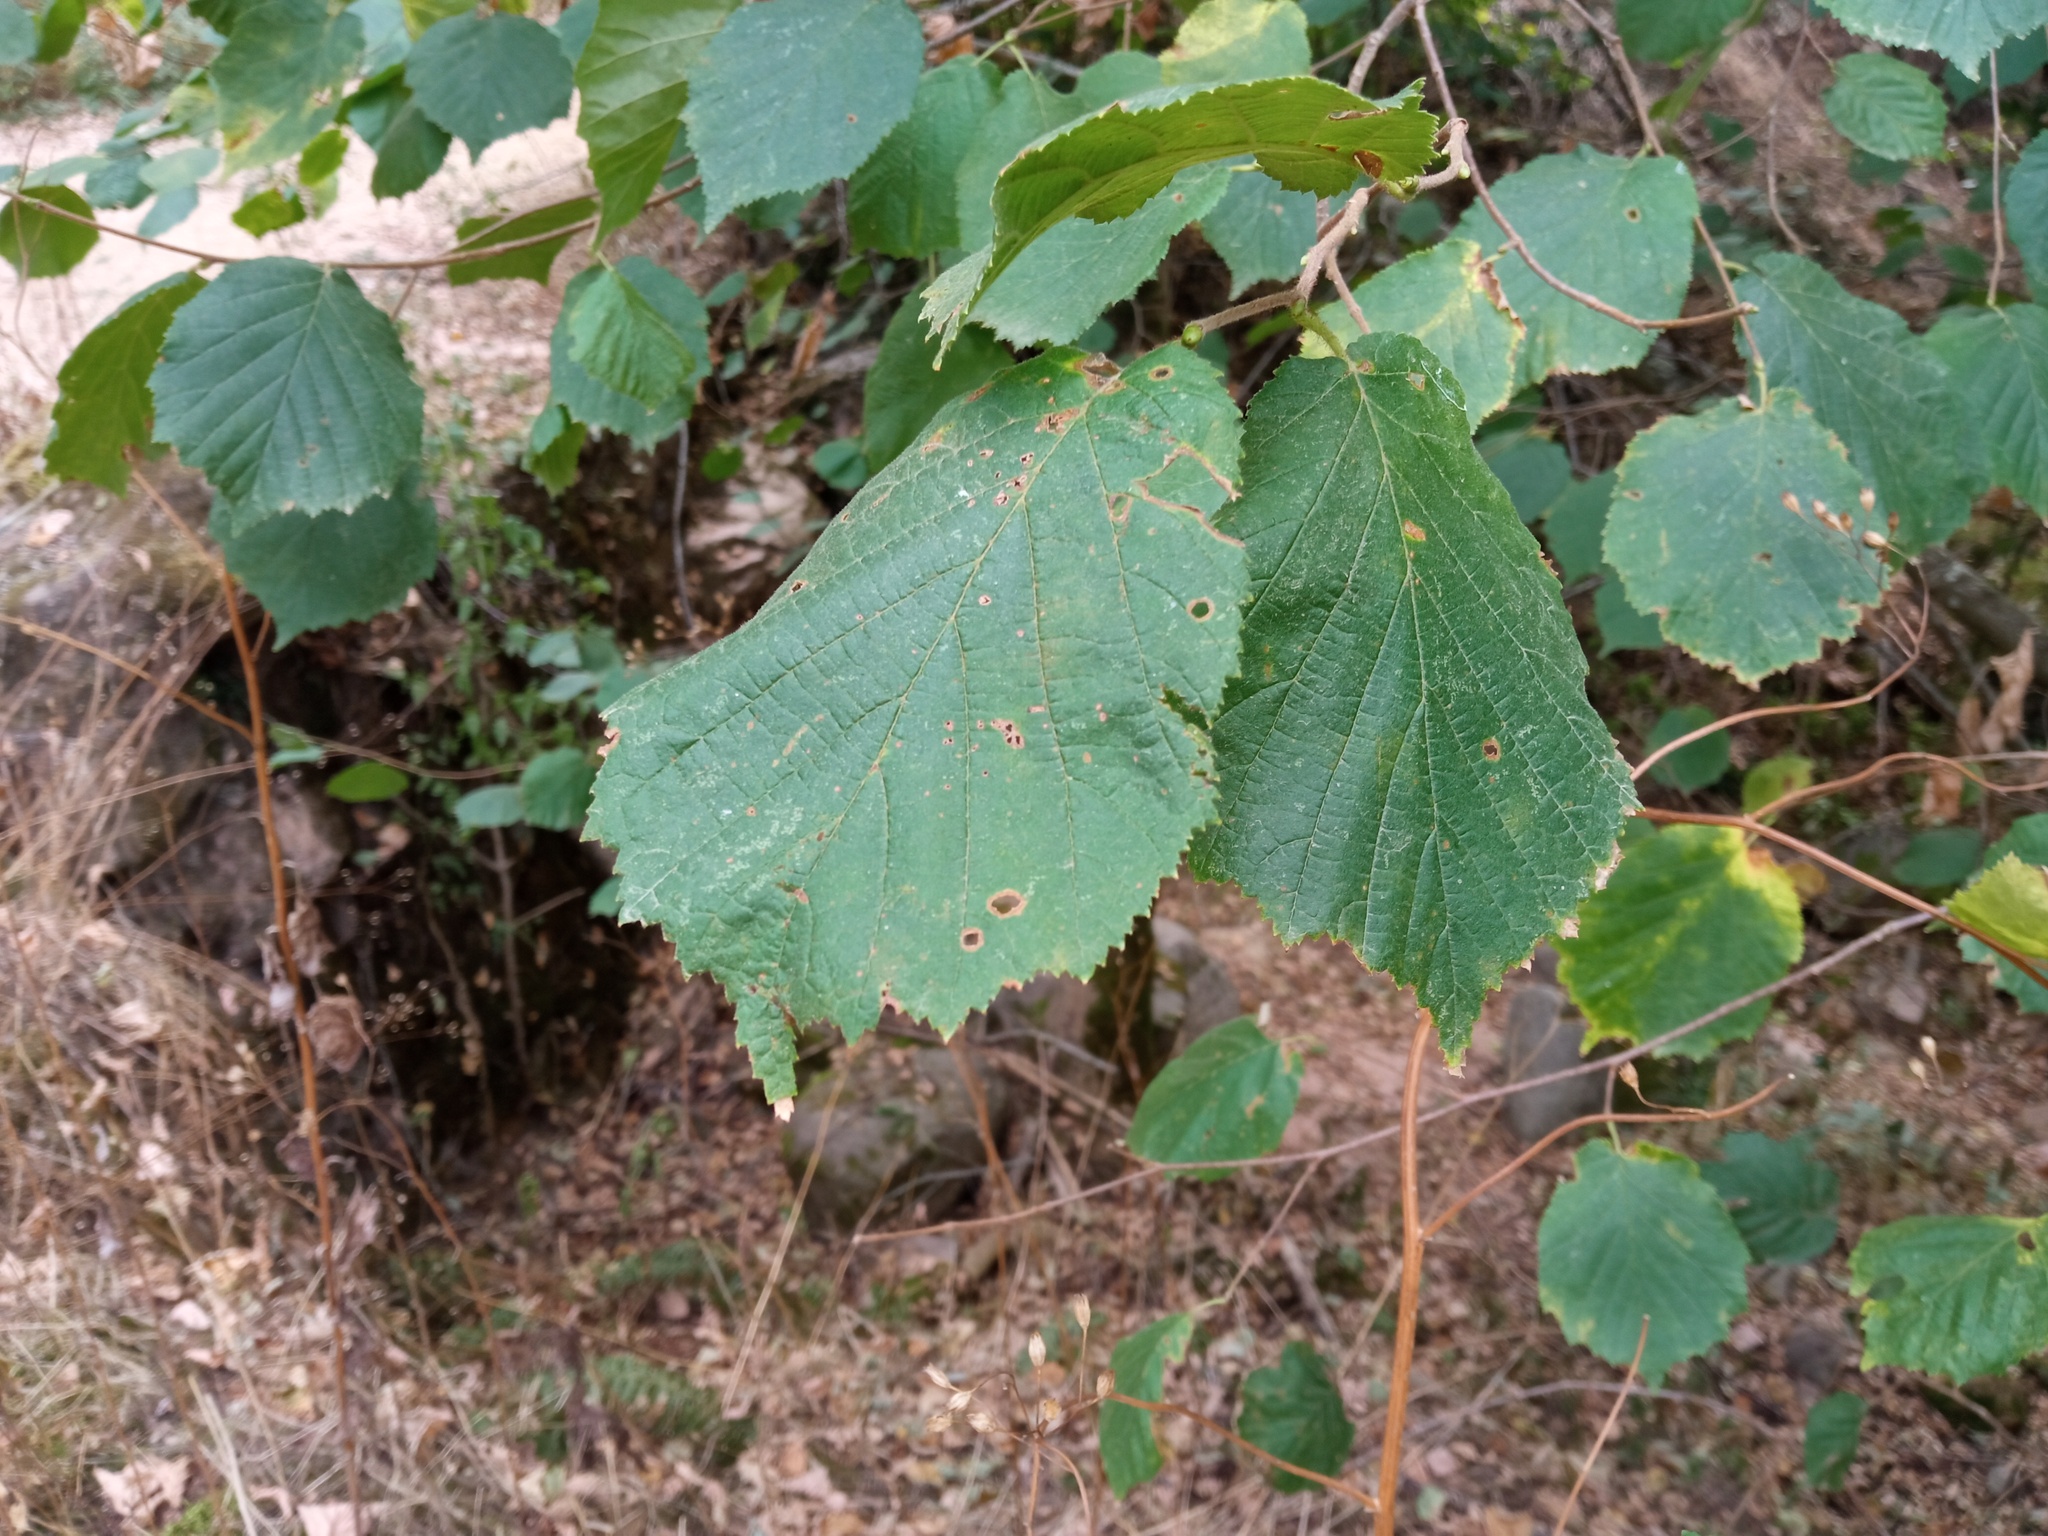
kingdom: Plantae
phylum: Tracheophyta
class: Magnoliopsida
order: Fagales
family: Betulaceae
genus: Corylus
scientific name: Corylus avellana
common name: European hazel
